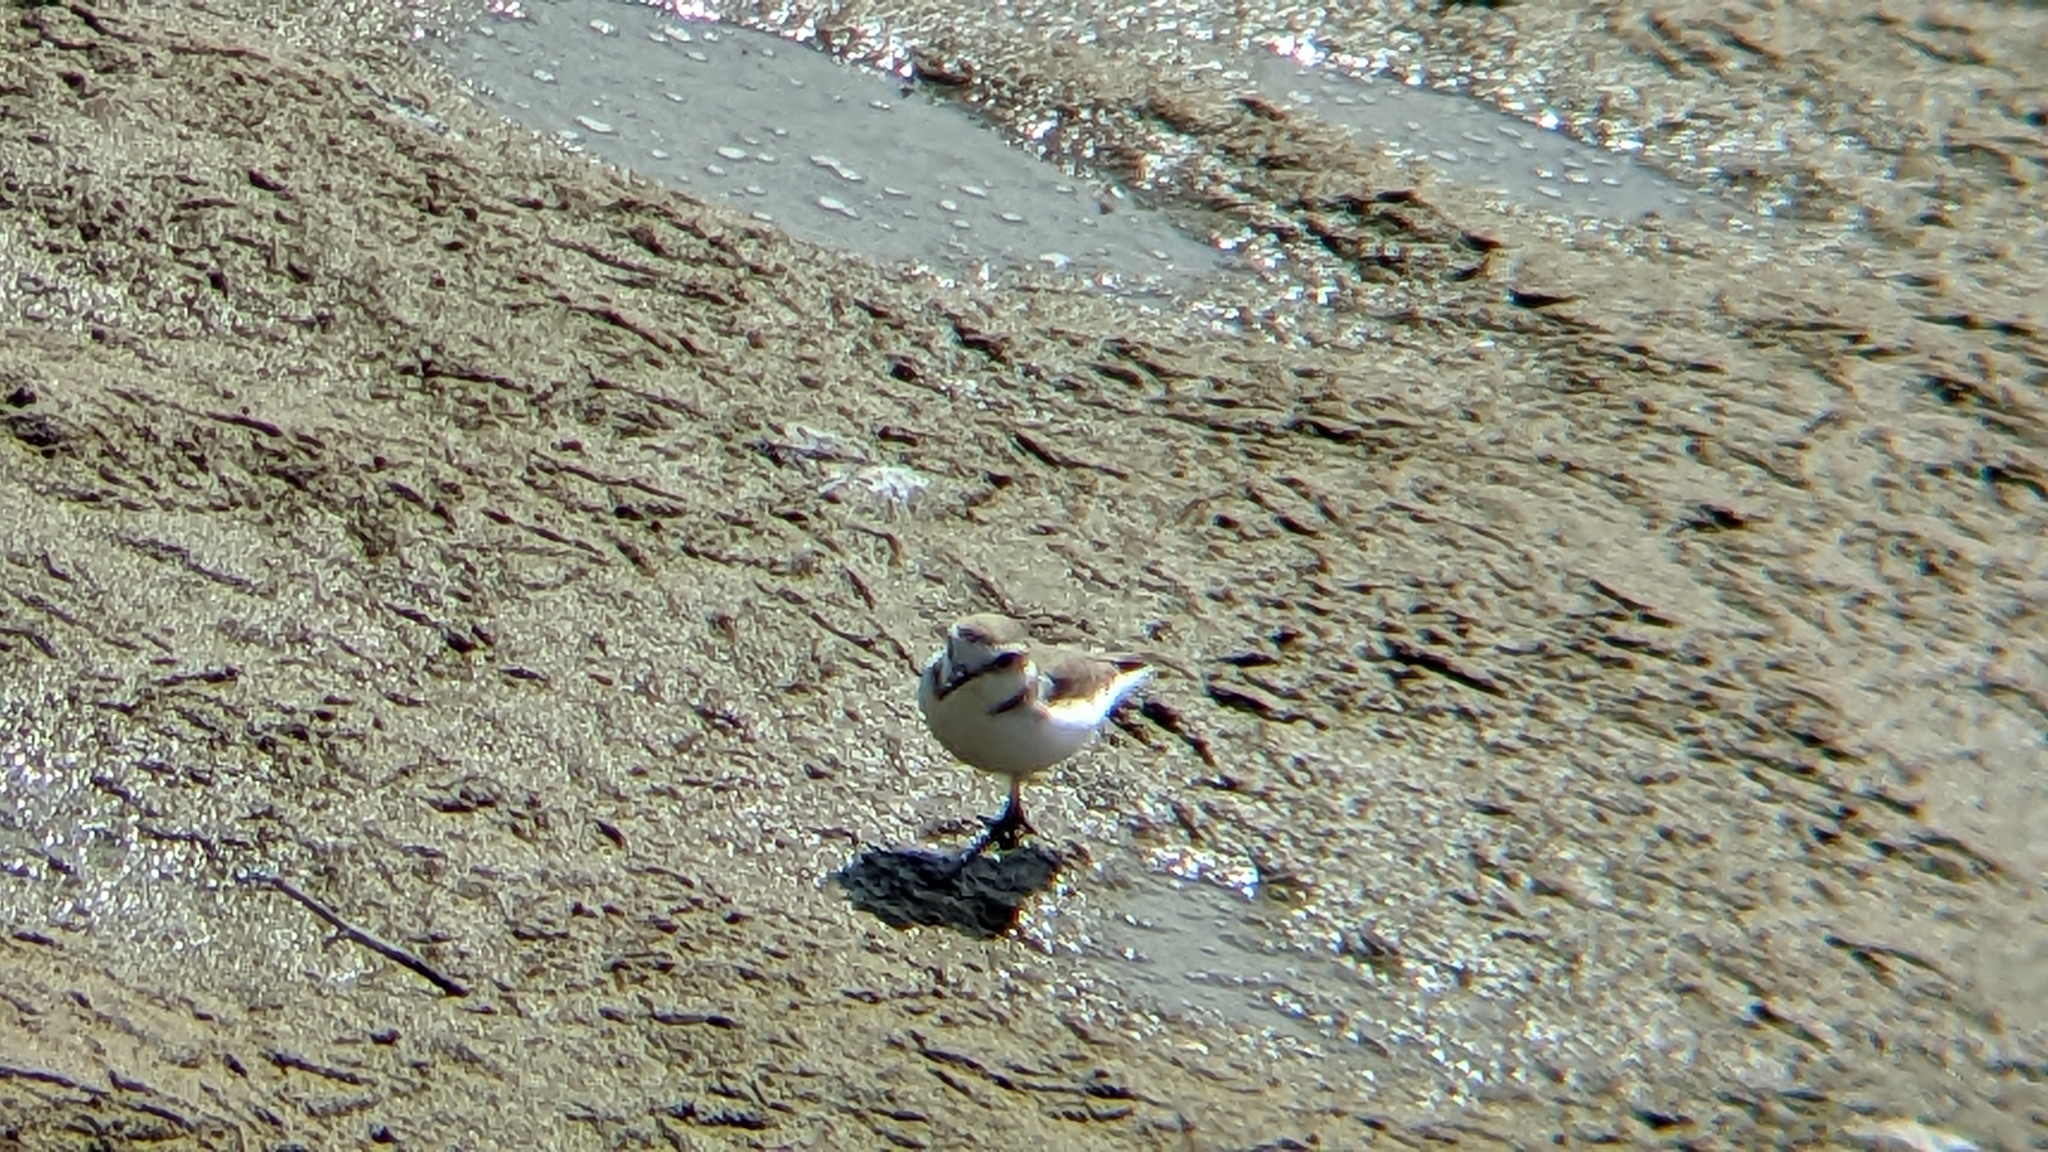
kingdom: Animalia
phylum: Chordata
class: Aves
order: Charadriiformes
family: Charadriidae
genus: Charadrius
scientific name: Charadrius alexandrinus
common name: Kentish plover
